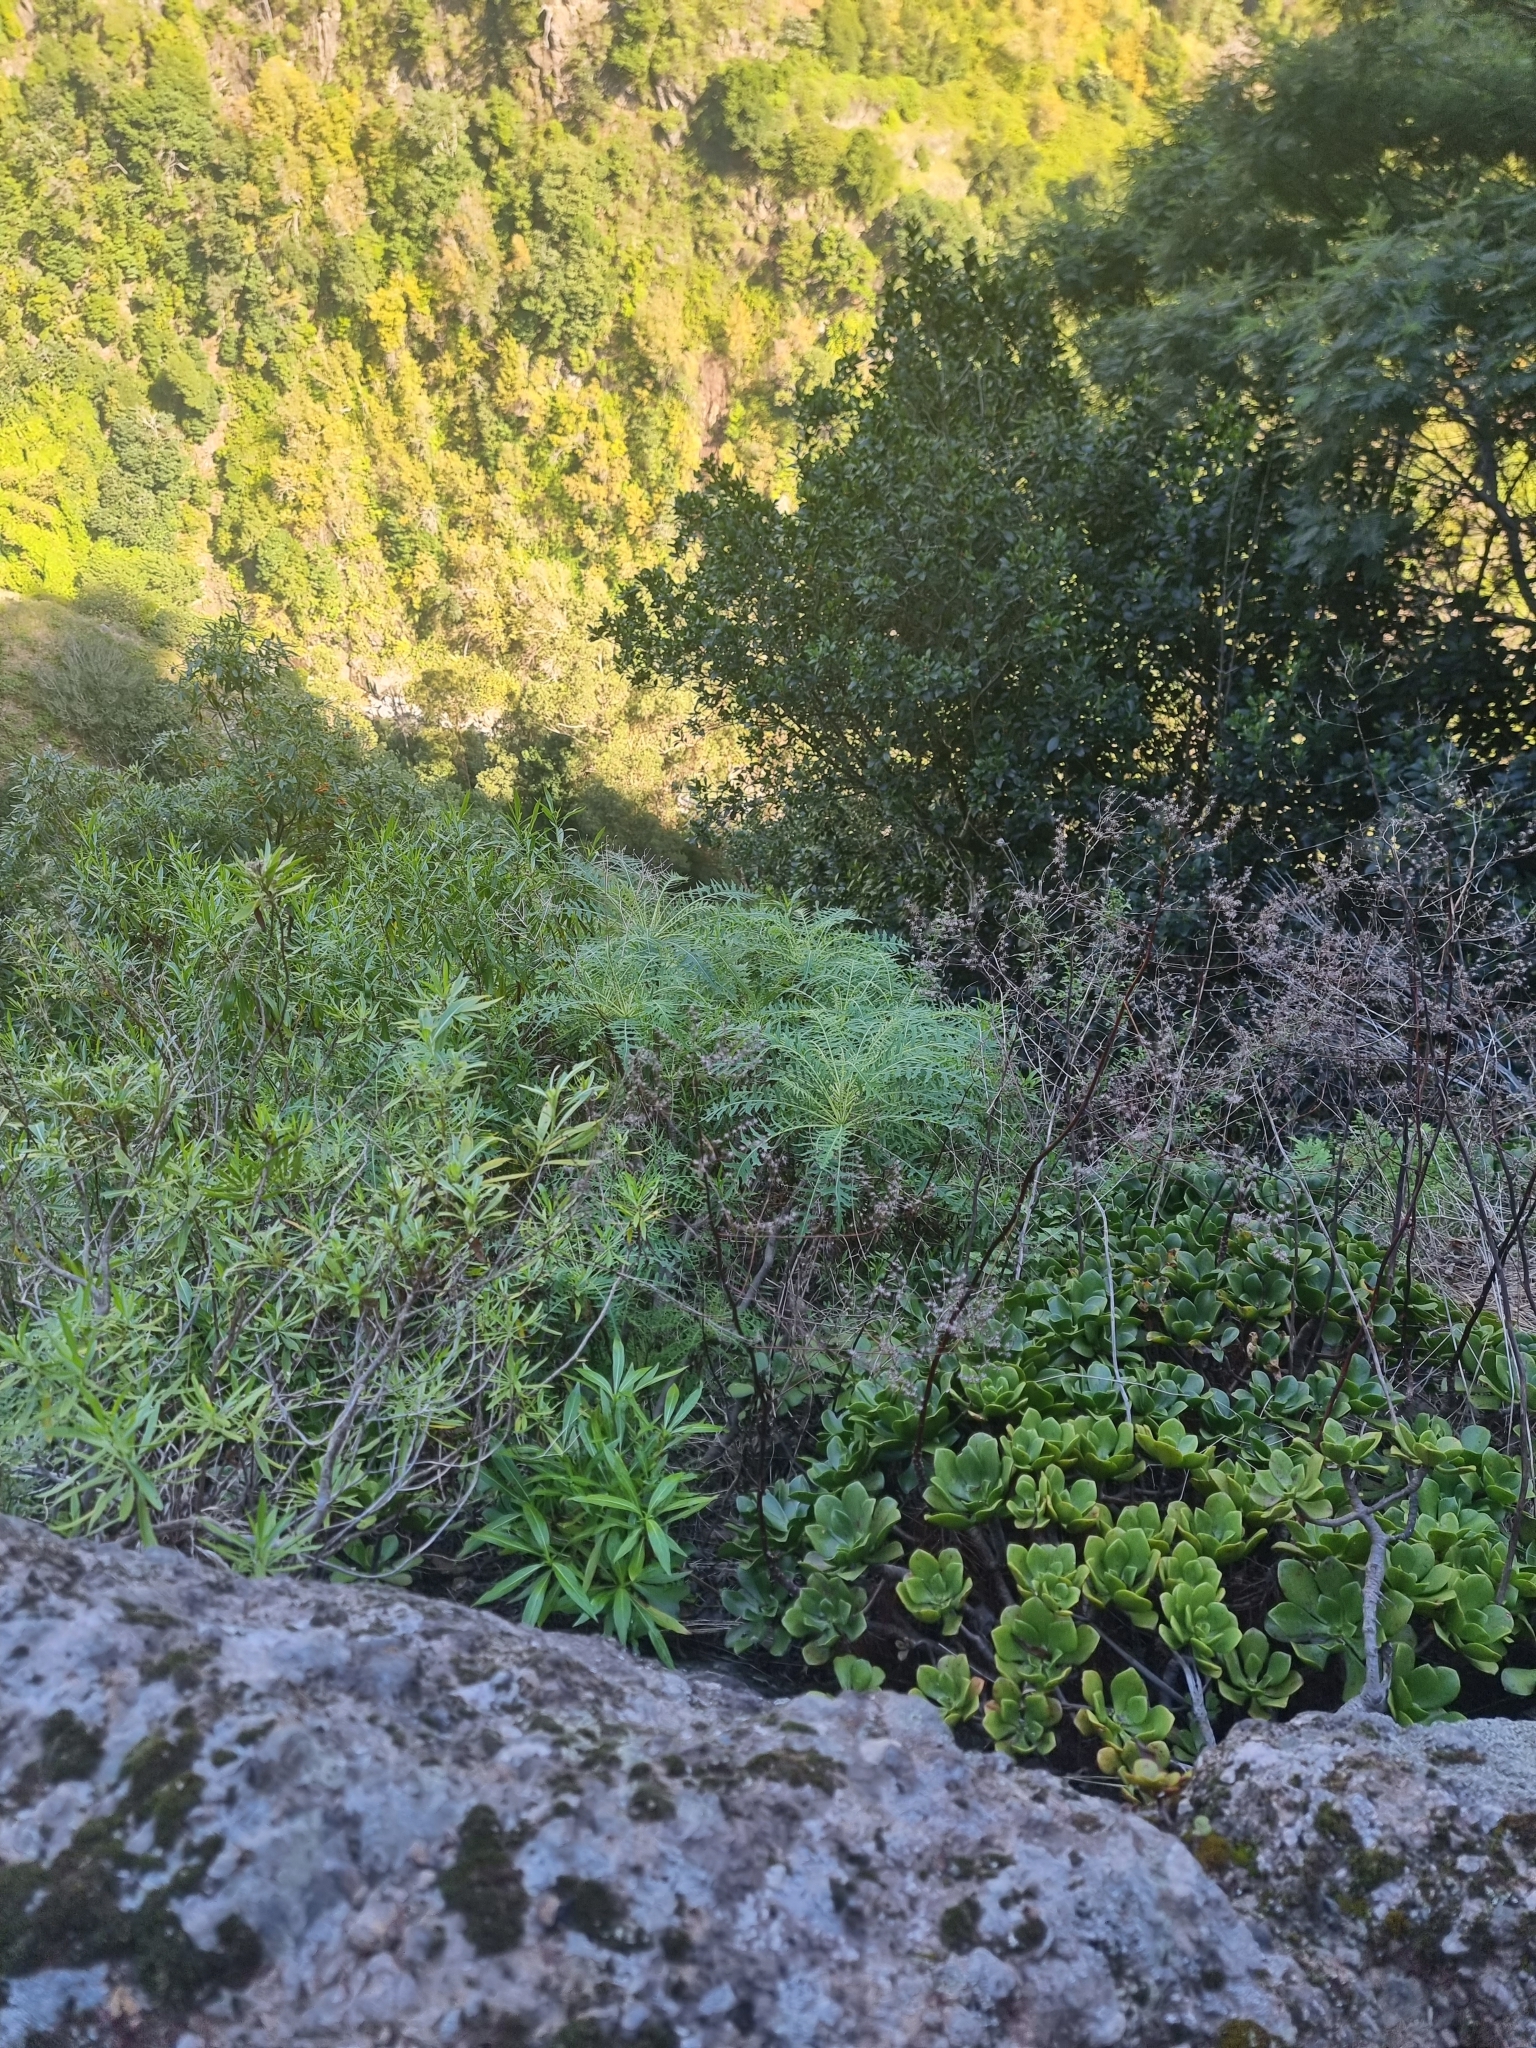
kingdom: Plantae
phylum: Tracheophyta
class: Magnoliopsida
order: Asterales
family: Asteraceae
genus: Sonchus
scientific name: Sonchus pinnatus
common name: Wing-leaved sow-thistle
